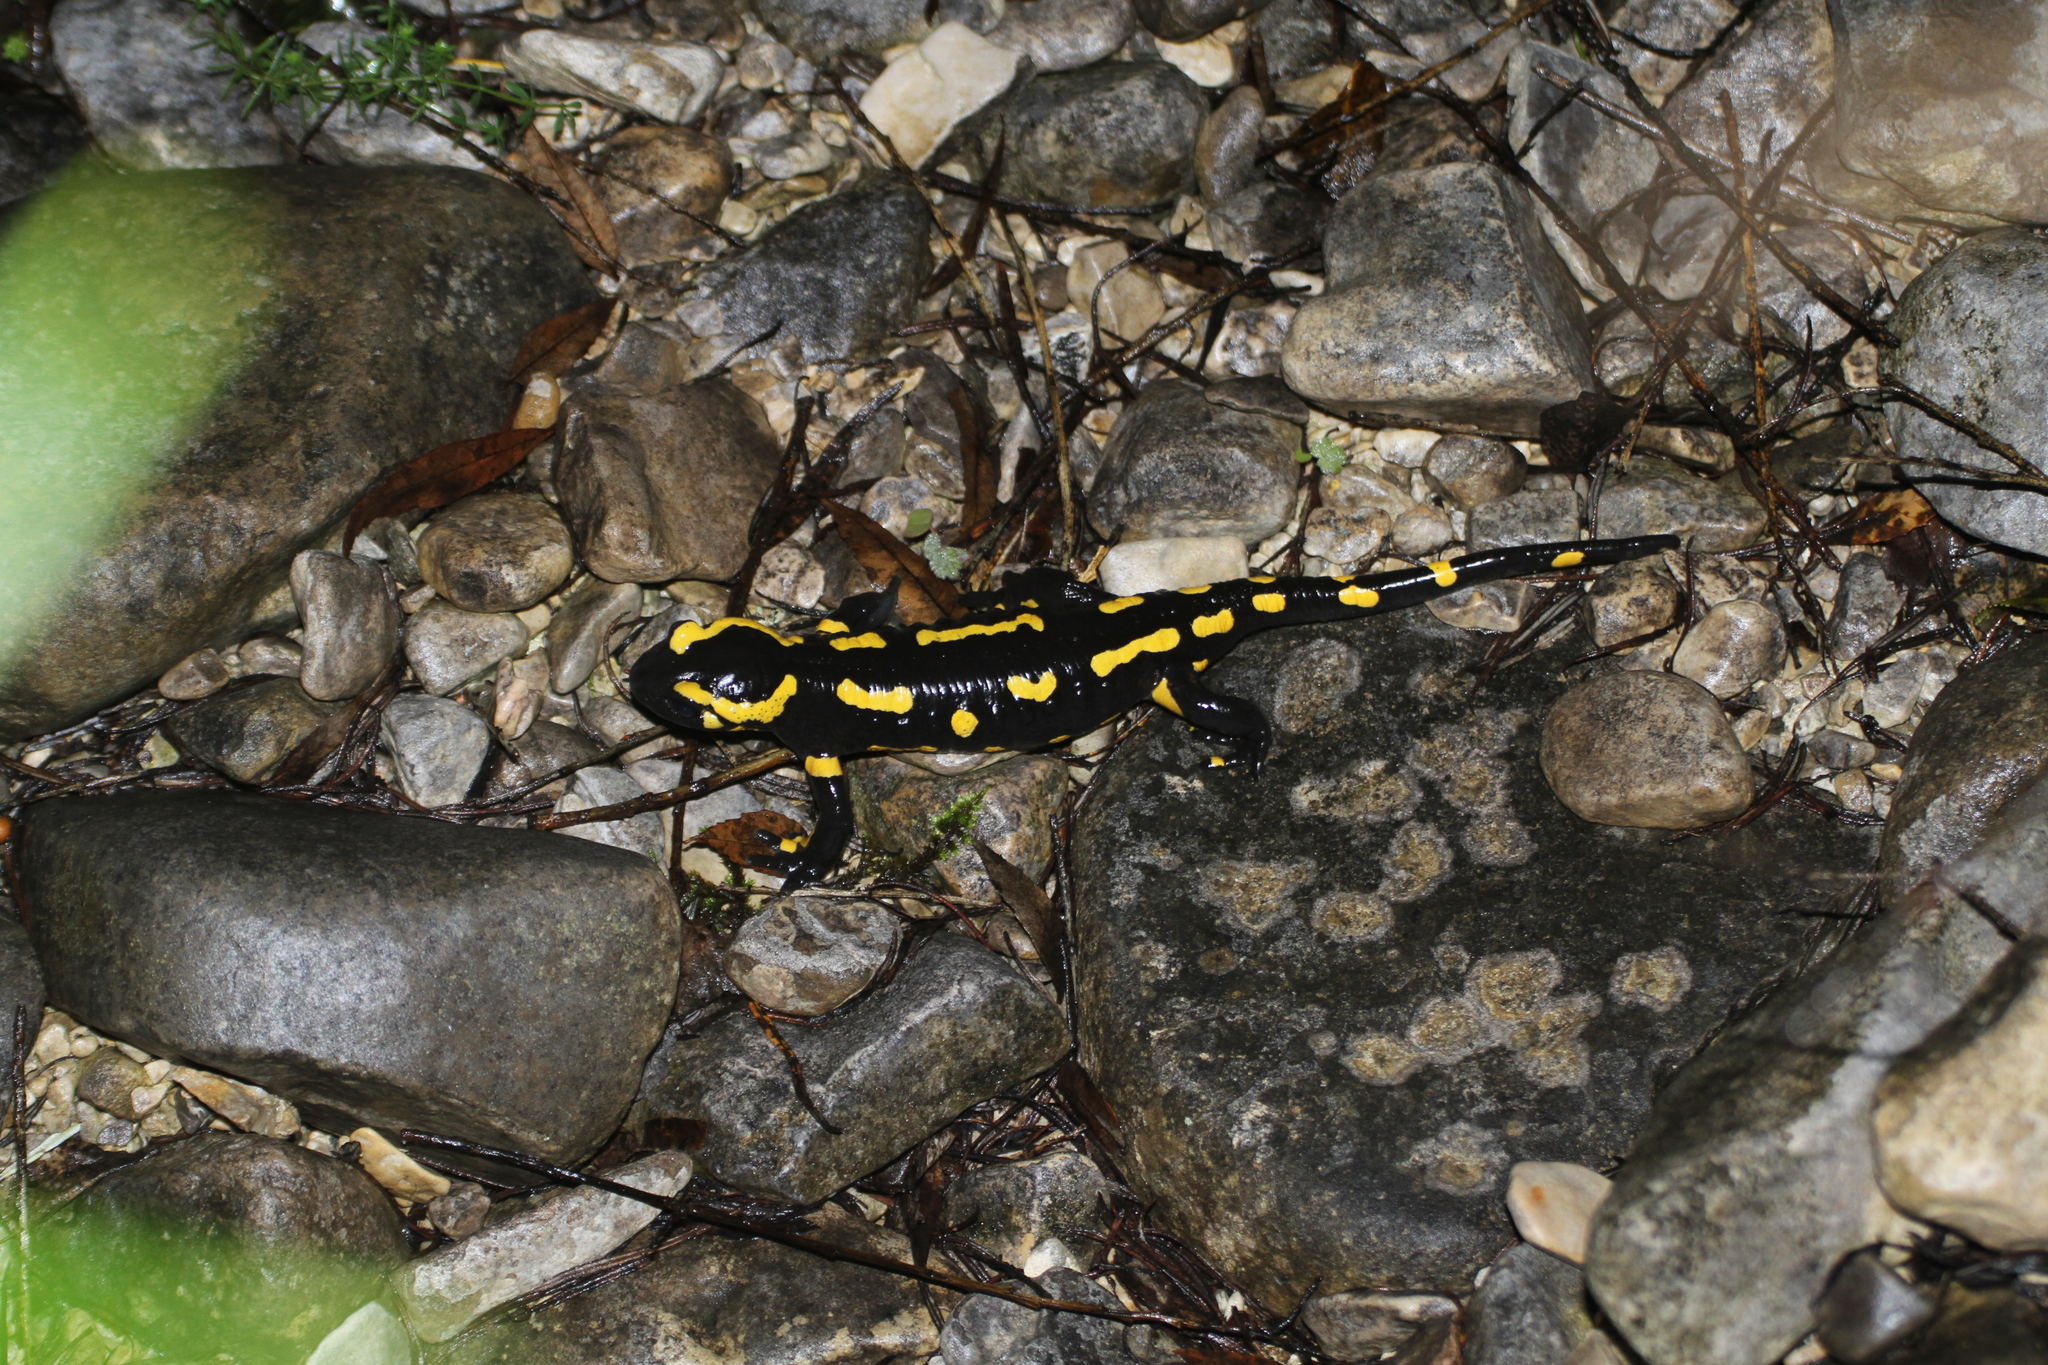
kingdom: Animalia
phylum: Chordata
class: Amphibia
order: Caudata
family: Salamandridae
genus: Salamandra
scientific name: Salamandra salamandra
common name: Fire salamander
